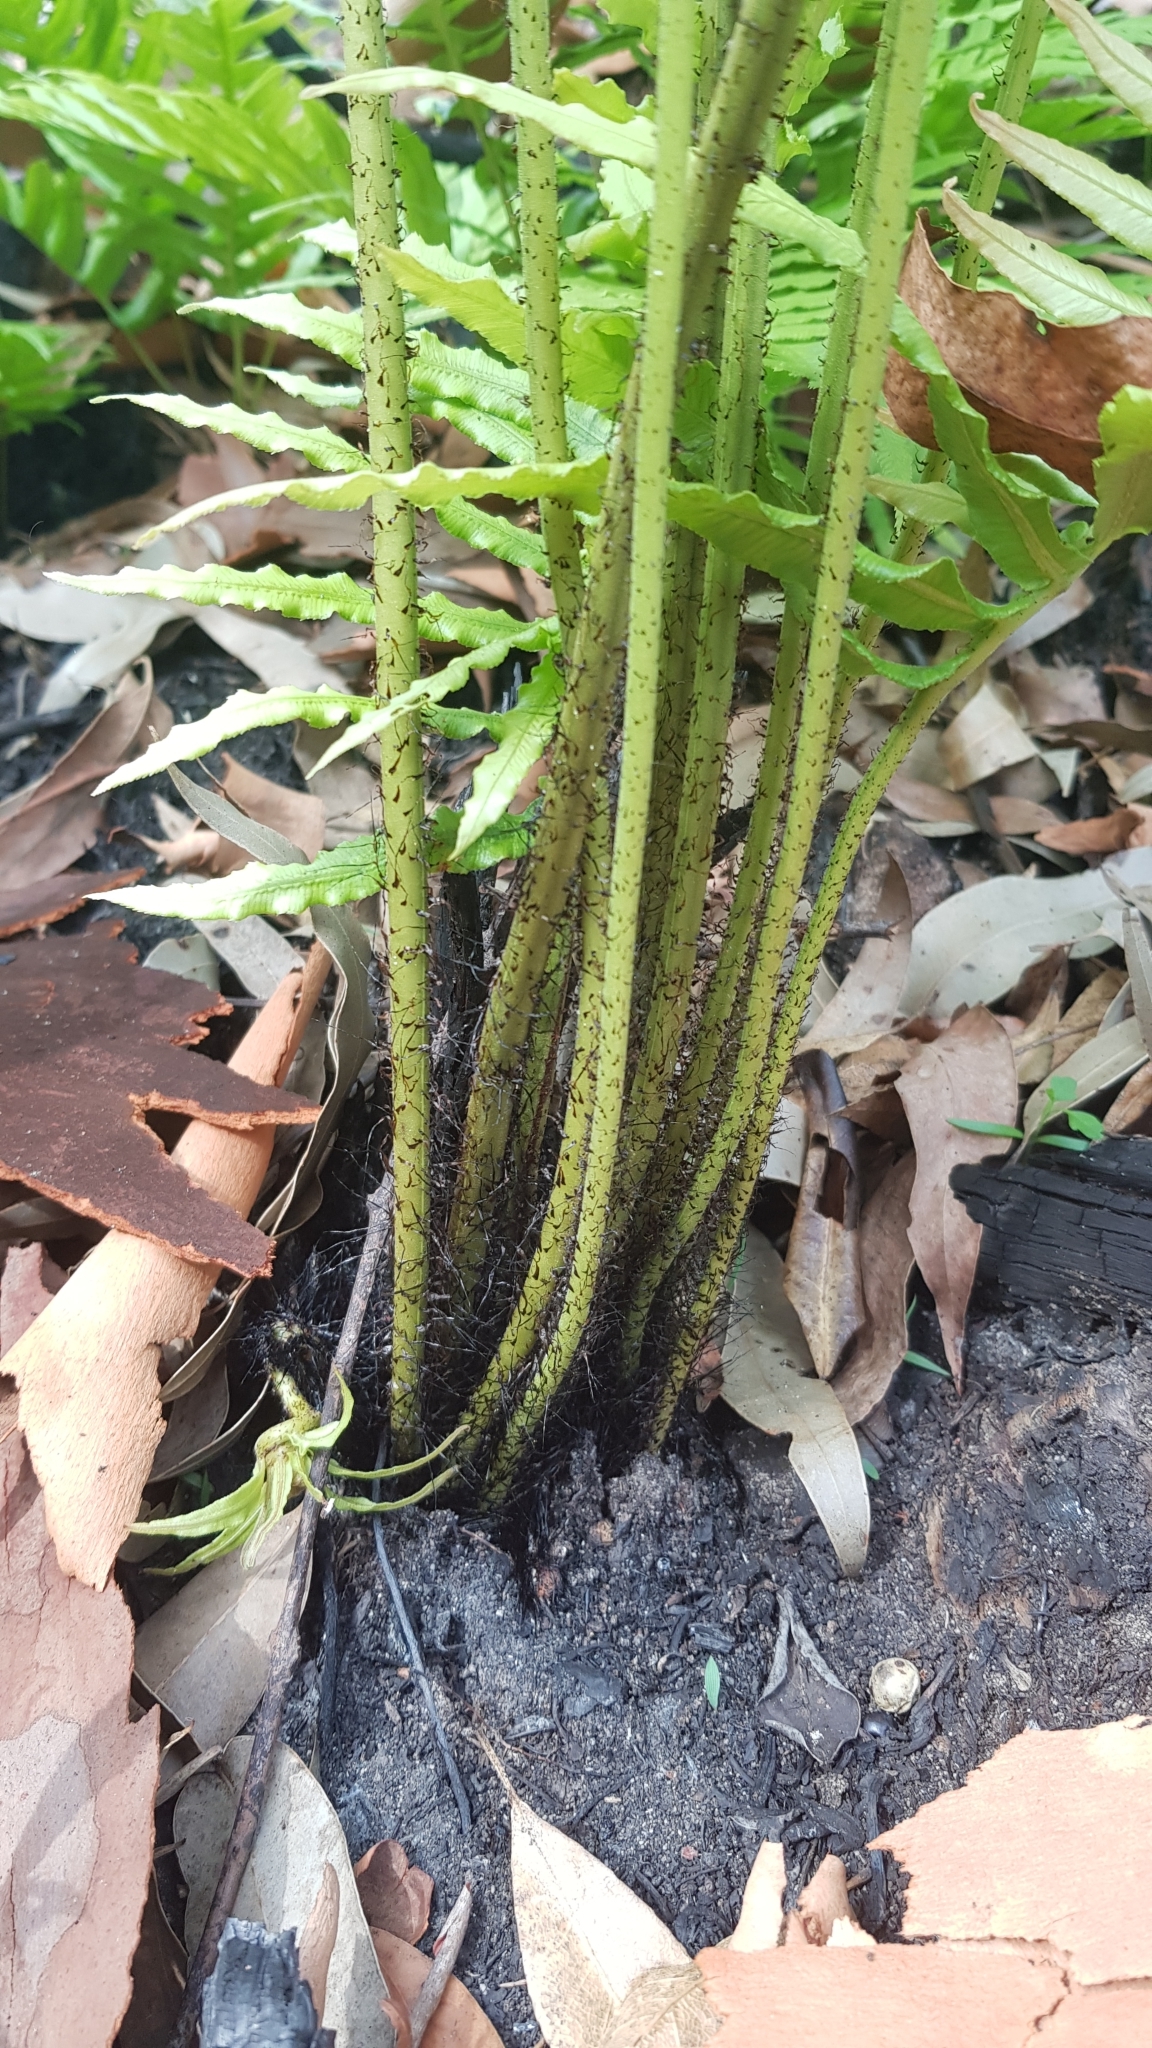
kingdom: Plantae
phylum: Tracheophyta
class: Polypodiopsida
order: Polypodiales
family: Blechnaceae
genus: Oceaniopteris
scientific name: Oceaniopteris cartilaginea
